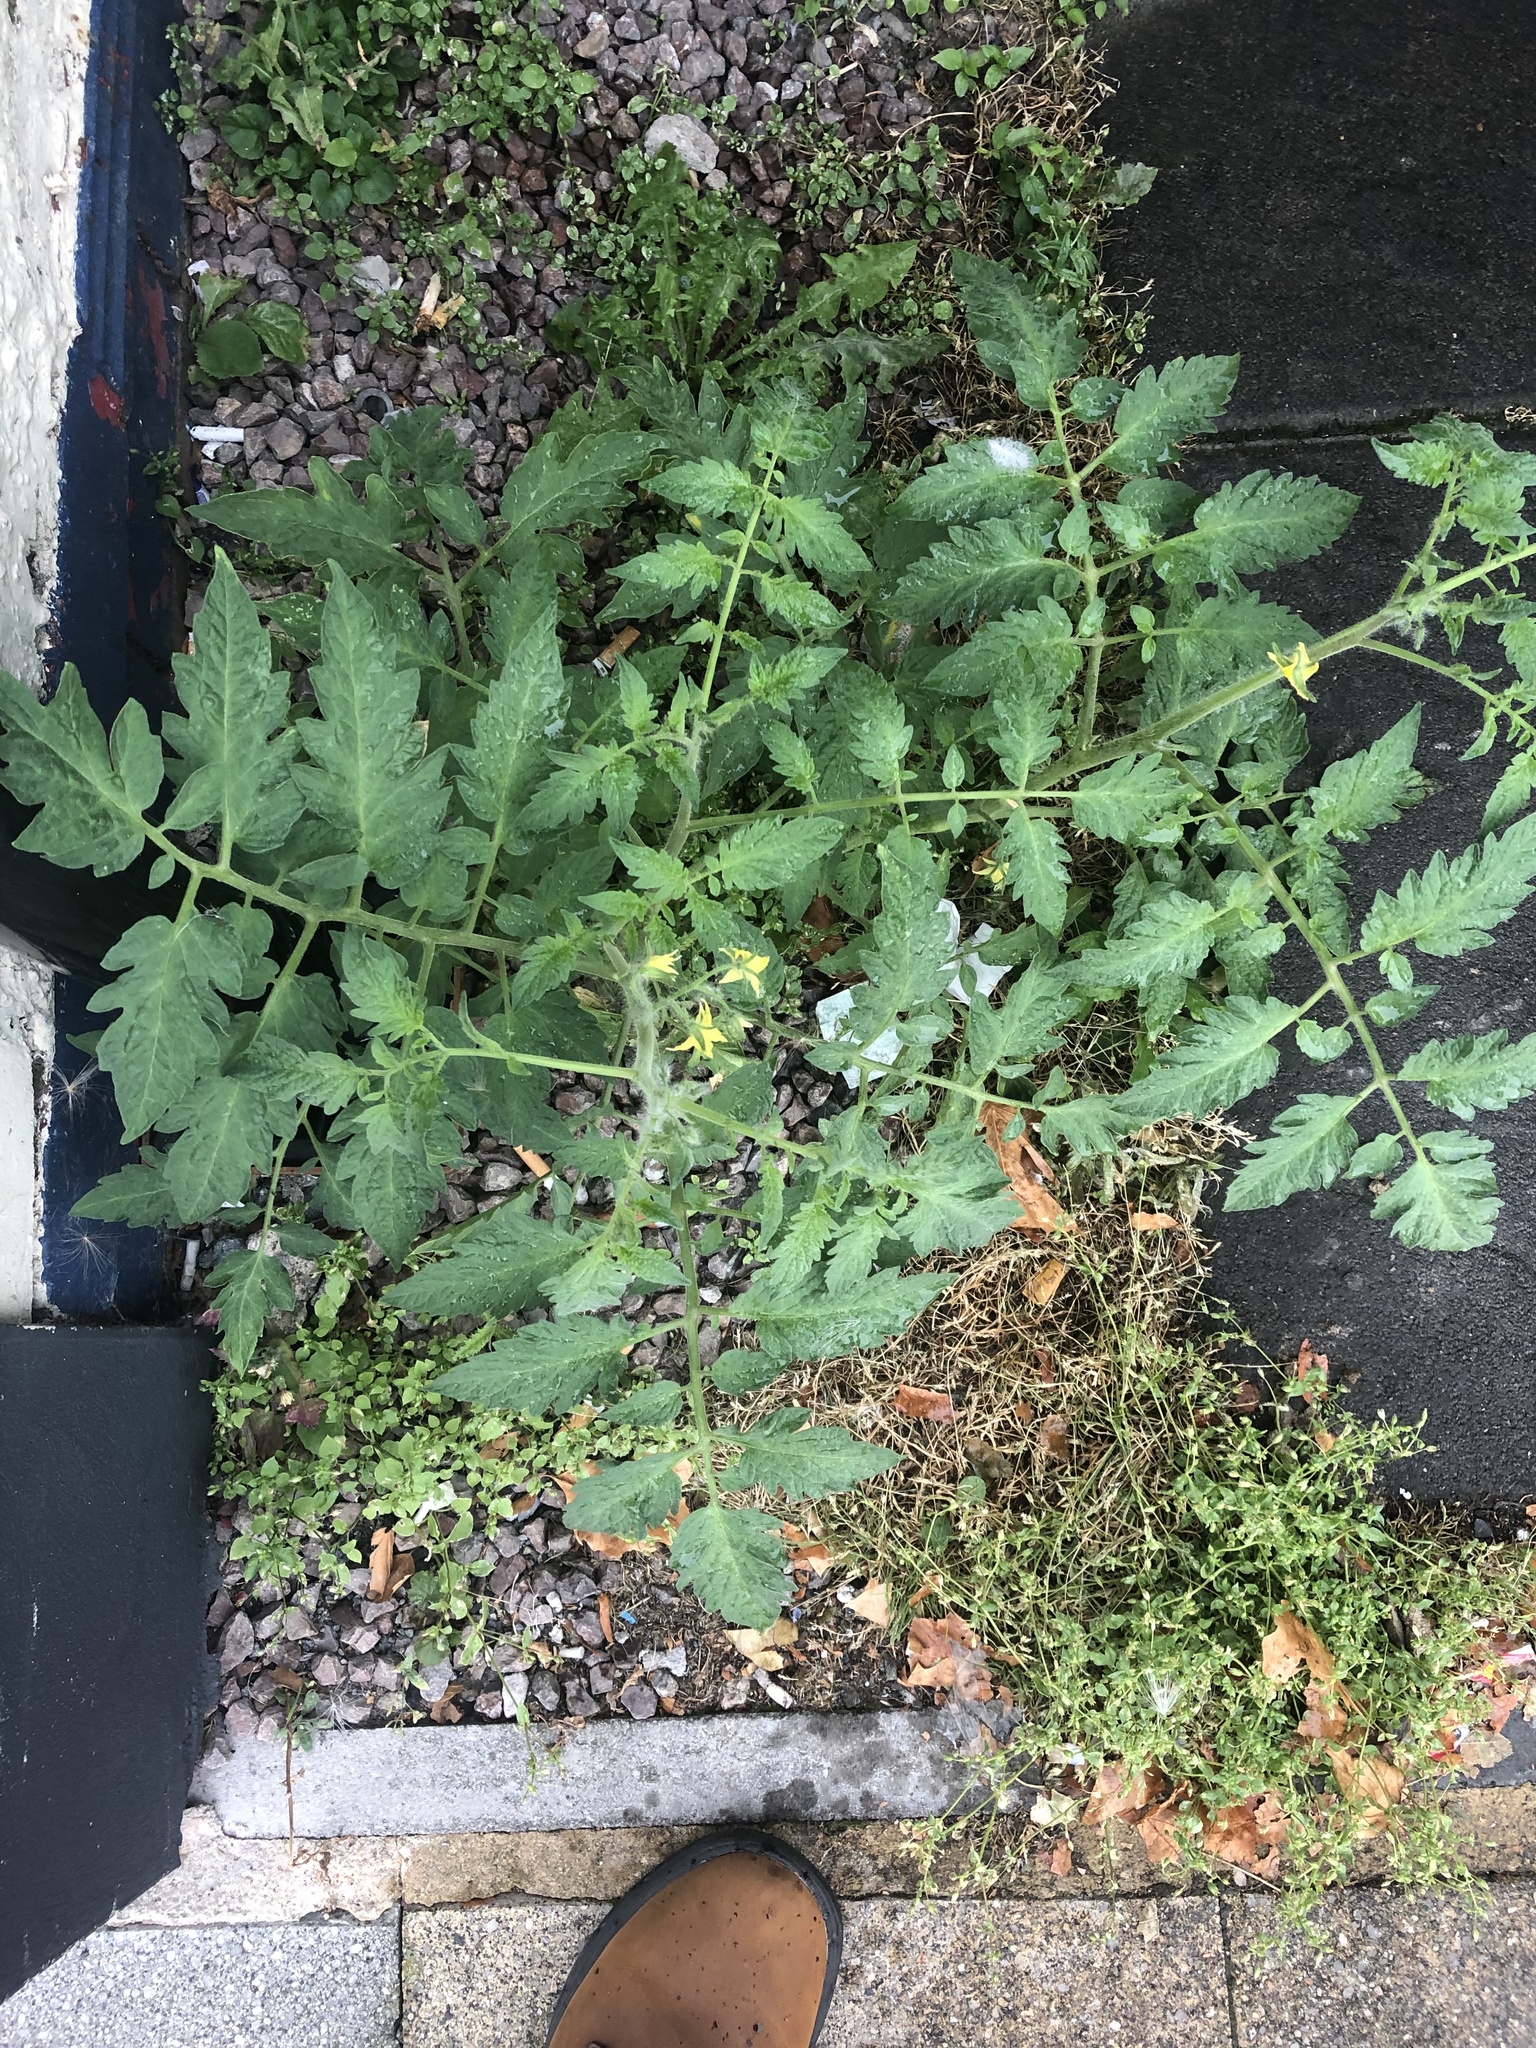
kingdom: Plantae
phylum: Tracheophyta
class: Magnoliopsida
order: Solanales
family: Solanaceae
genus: Solanum
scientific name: Solanum lycopersicum
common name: Garden tomato
